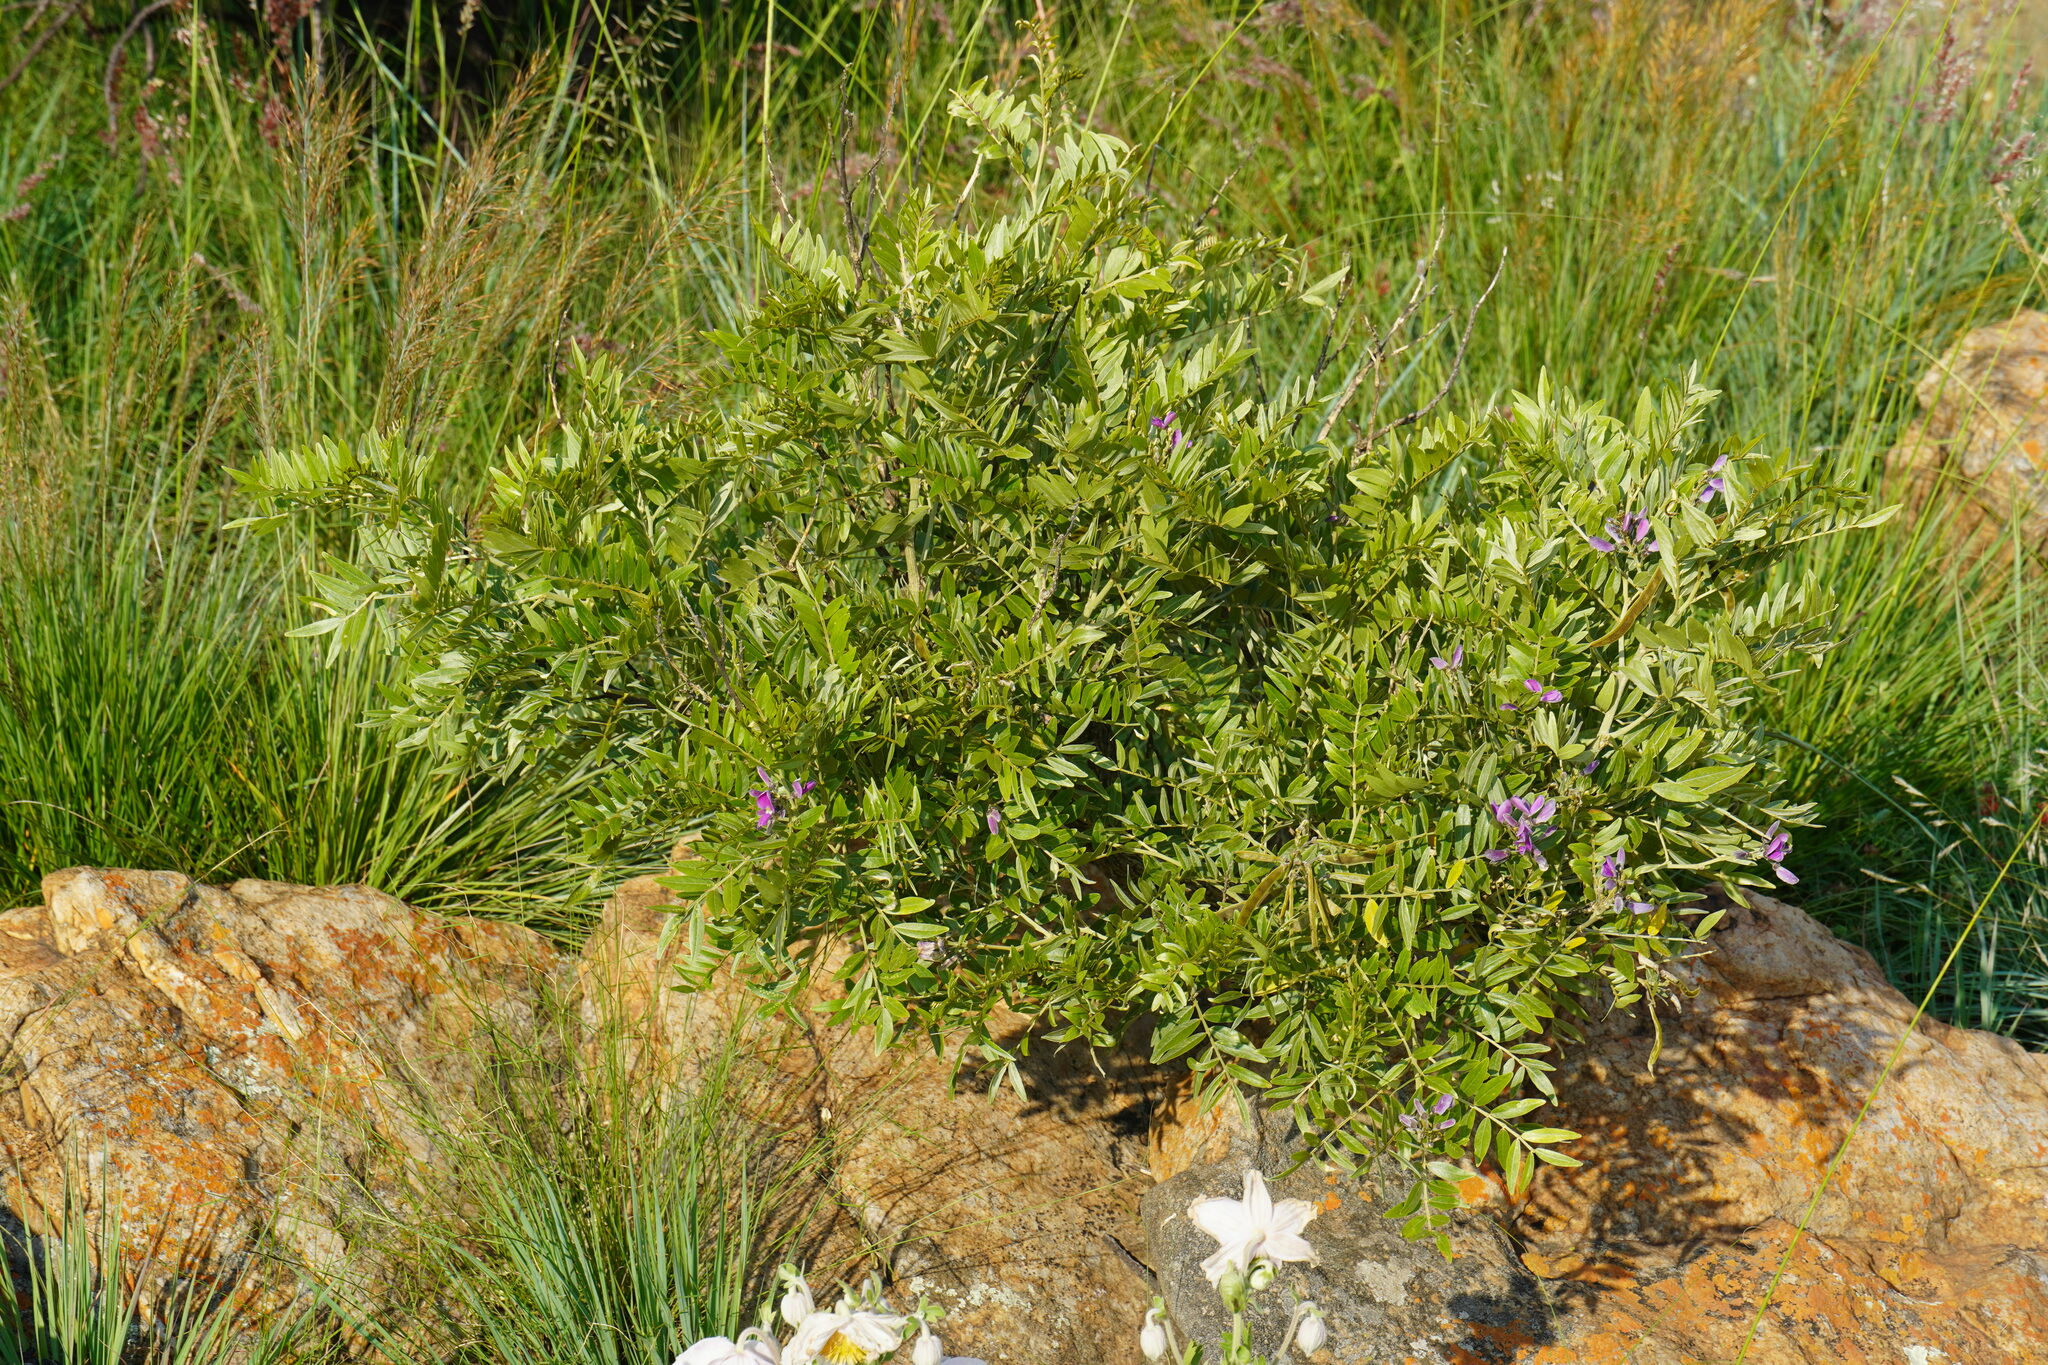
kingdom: Plantae
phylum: Tracheophyta
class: Magnoliopsida
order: Fabales
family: Fabaceae
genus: Mundulea
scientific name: Mundulea sericea
